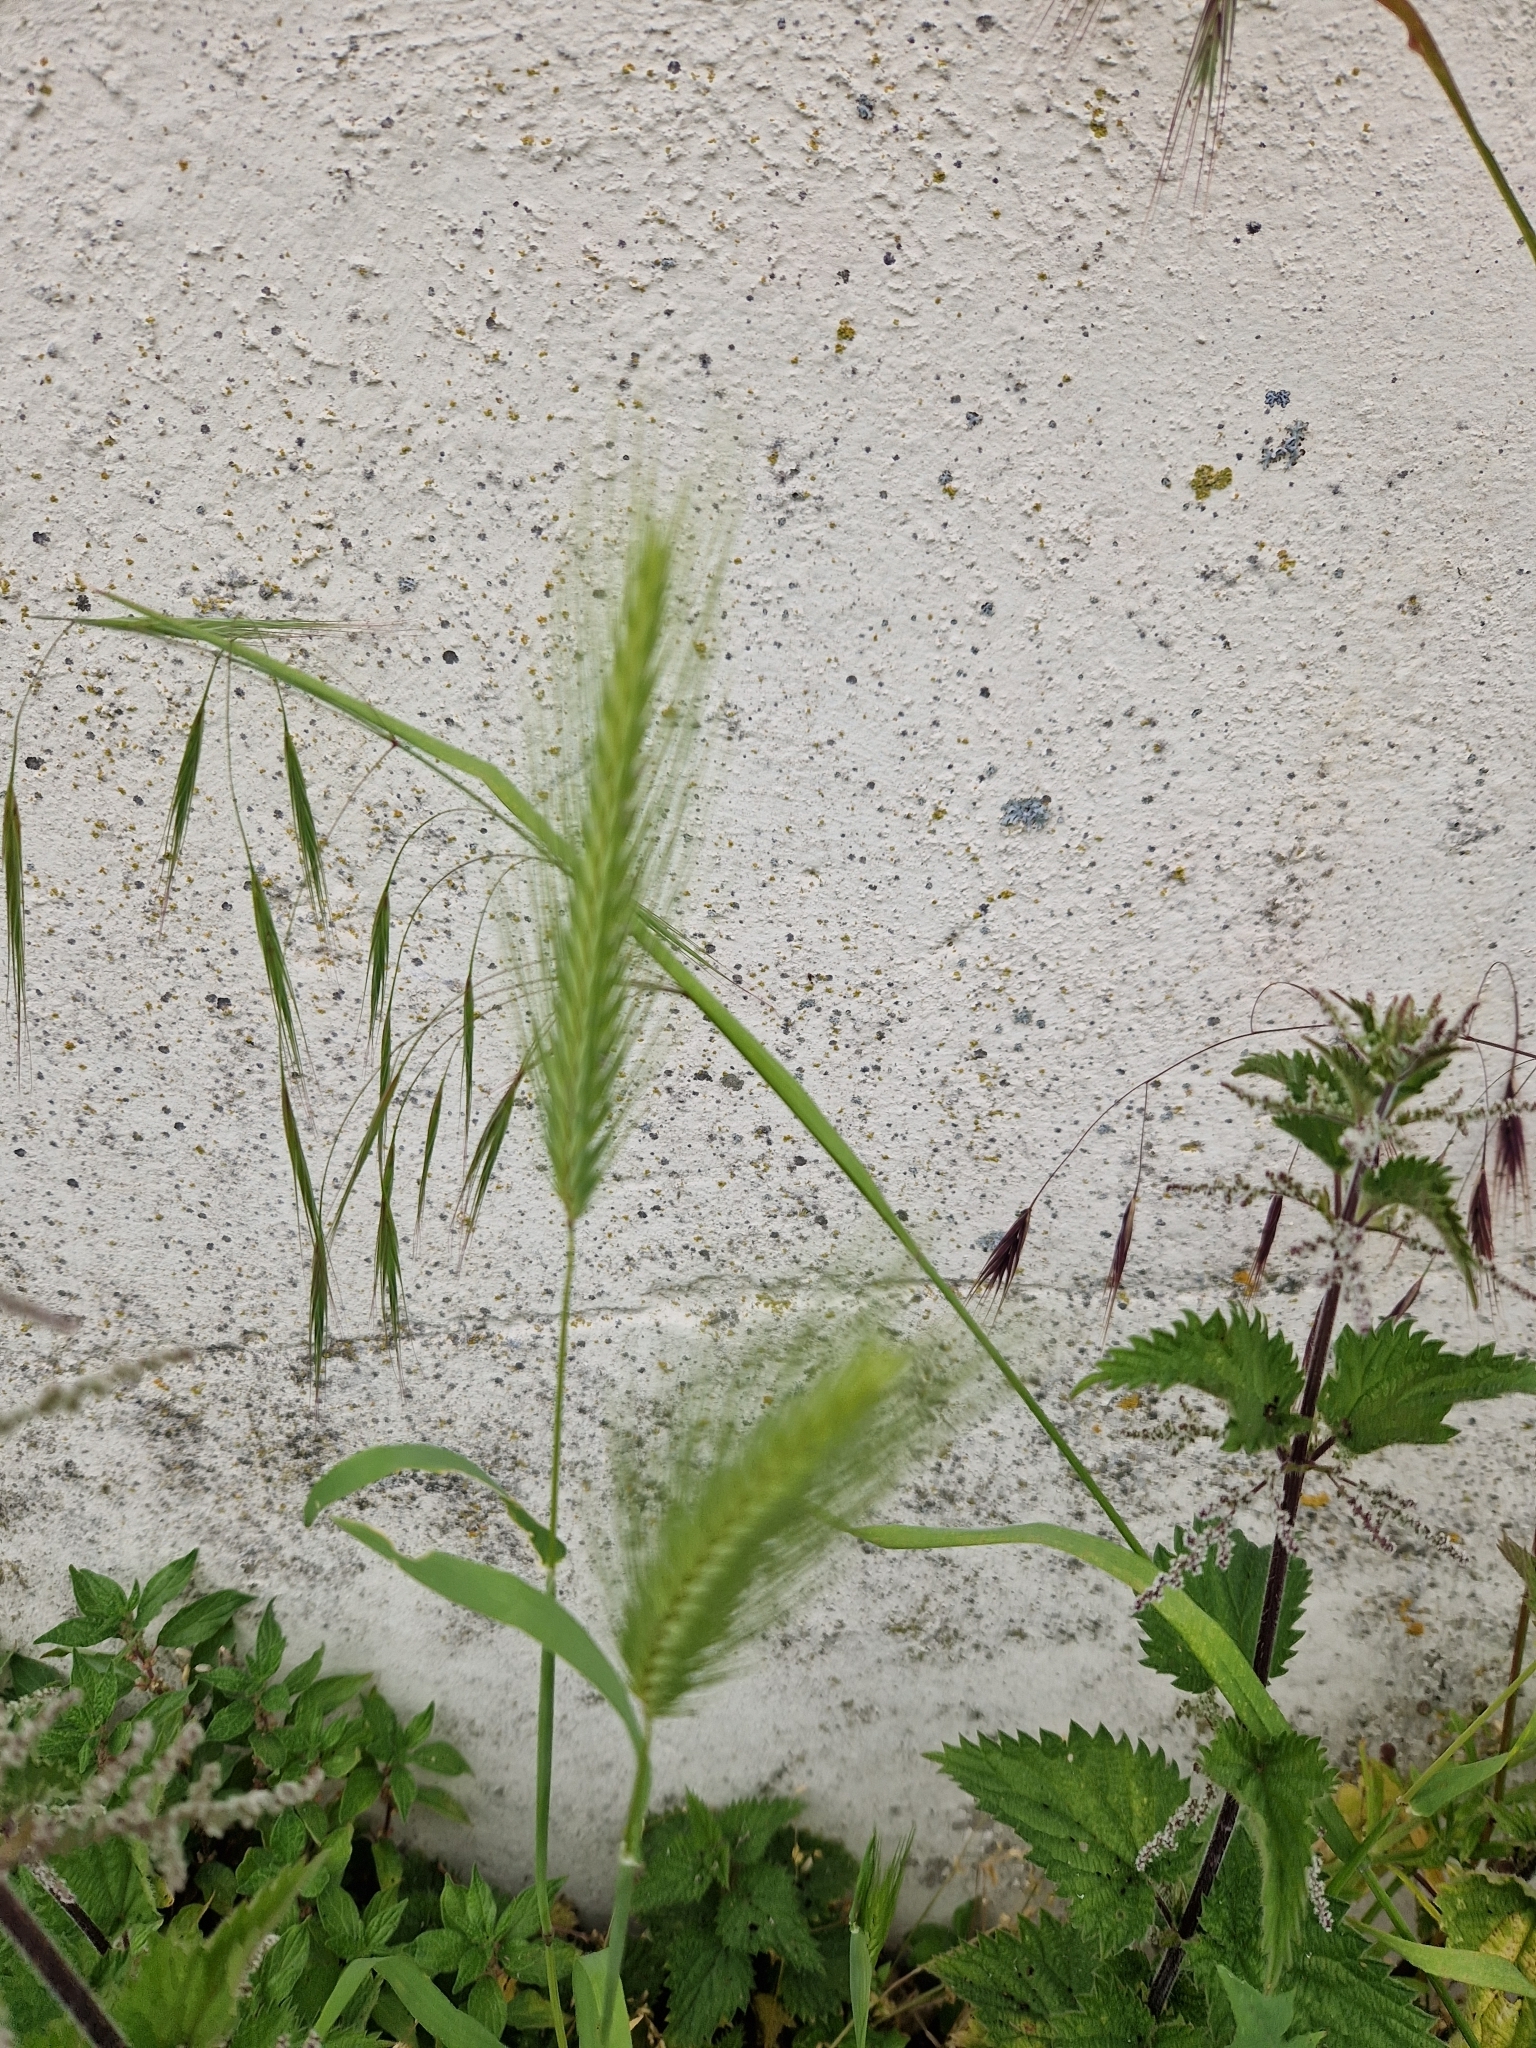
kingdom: Plantae
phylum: Tracheophyta
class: Liliopsida
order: Poales
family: Poaceae
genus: Hordeum
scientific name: Hordeum murinum
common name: Wall barley
